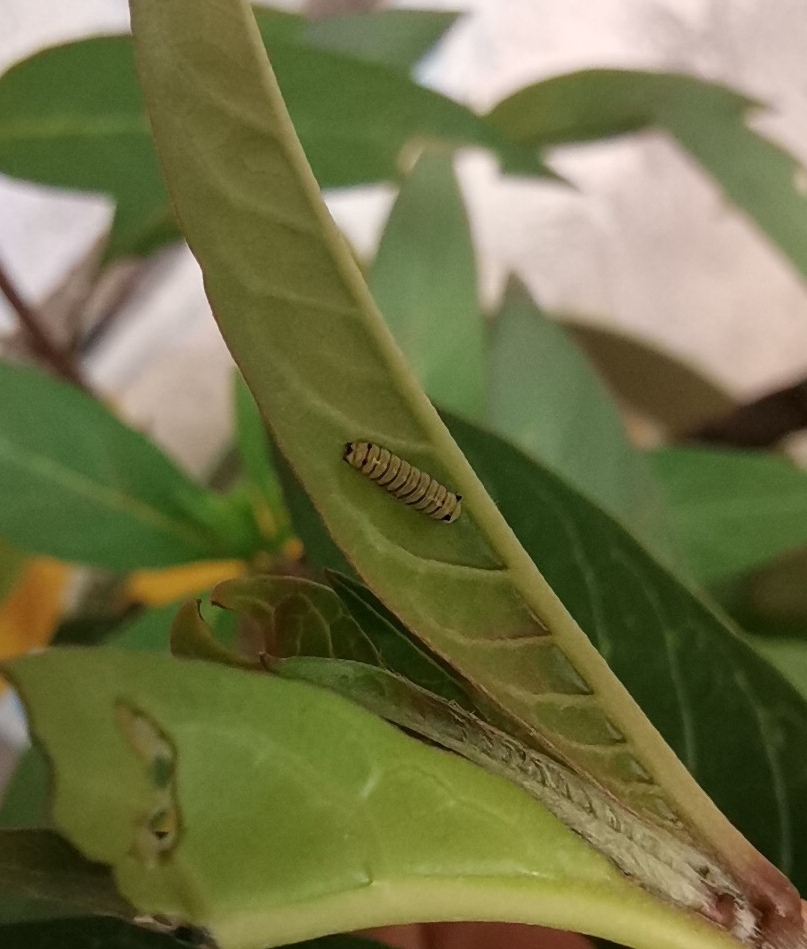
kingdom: Animalia
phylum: Arthropoda
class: Insecta
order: Lepidoptera
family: Nymphalidae
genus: Danaus
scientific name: Danaus plexippus
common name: Monarch
